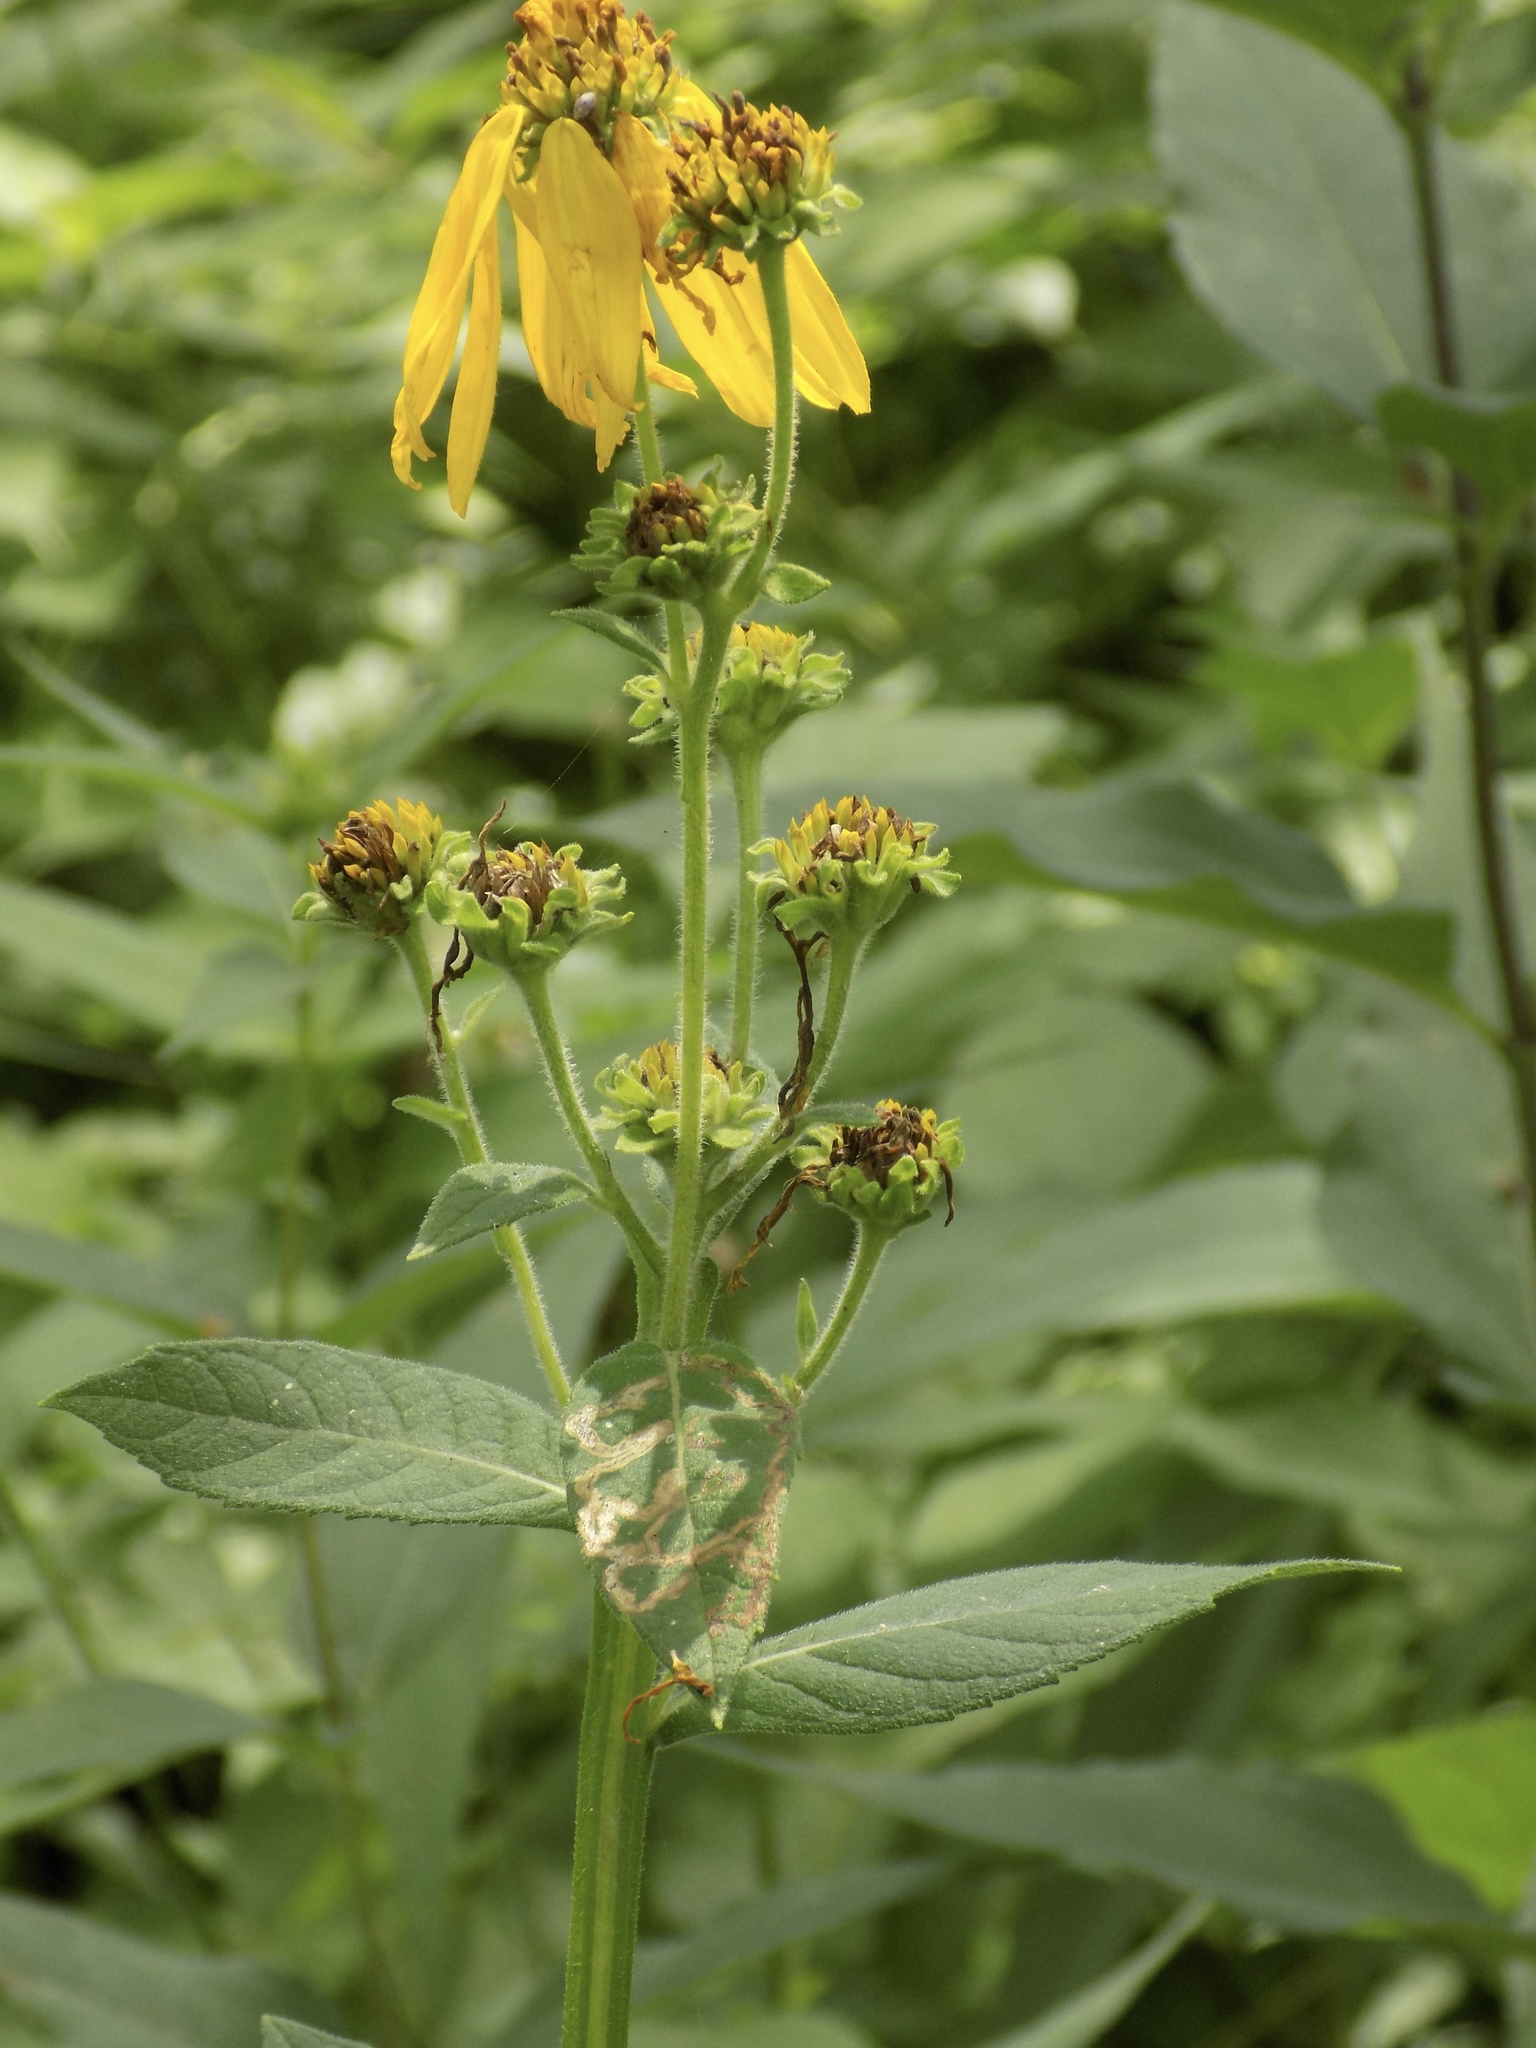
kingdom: Plantae
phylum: Tracheophyta
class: Magnoliopsida
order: Asterales
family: Asteraceae
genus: Verbesina
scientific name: Verbesina helianthoides
